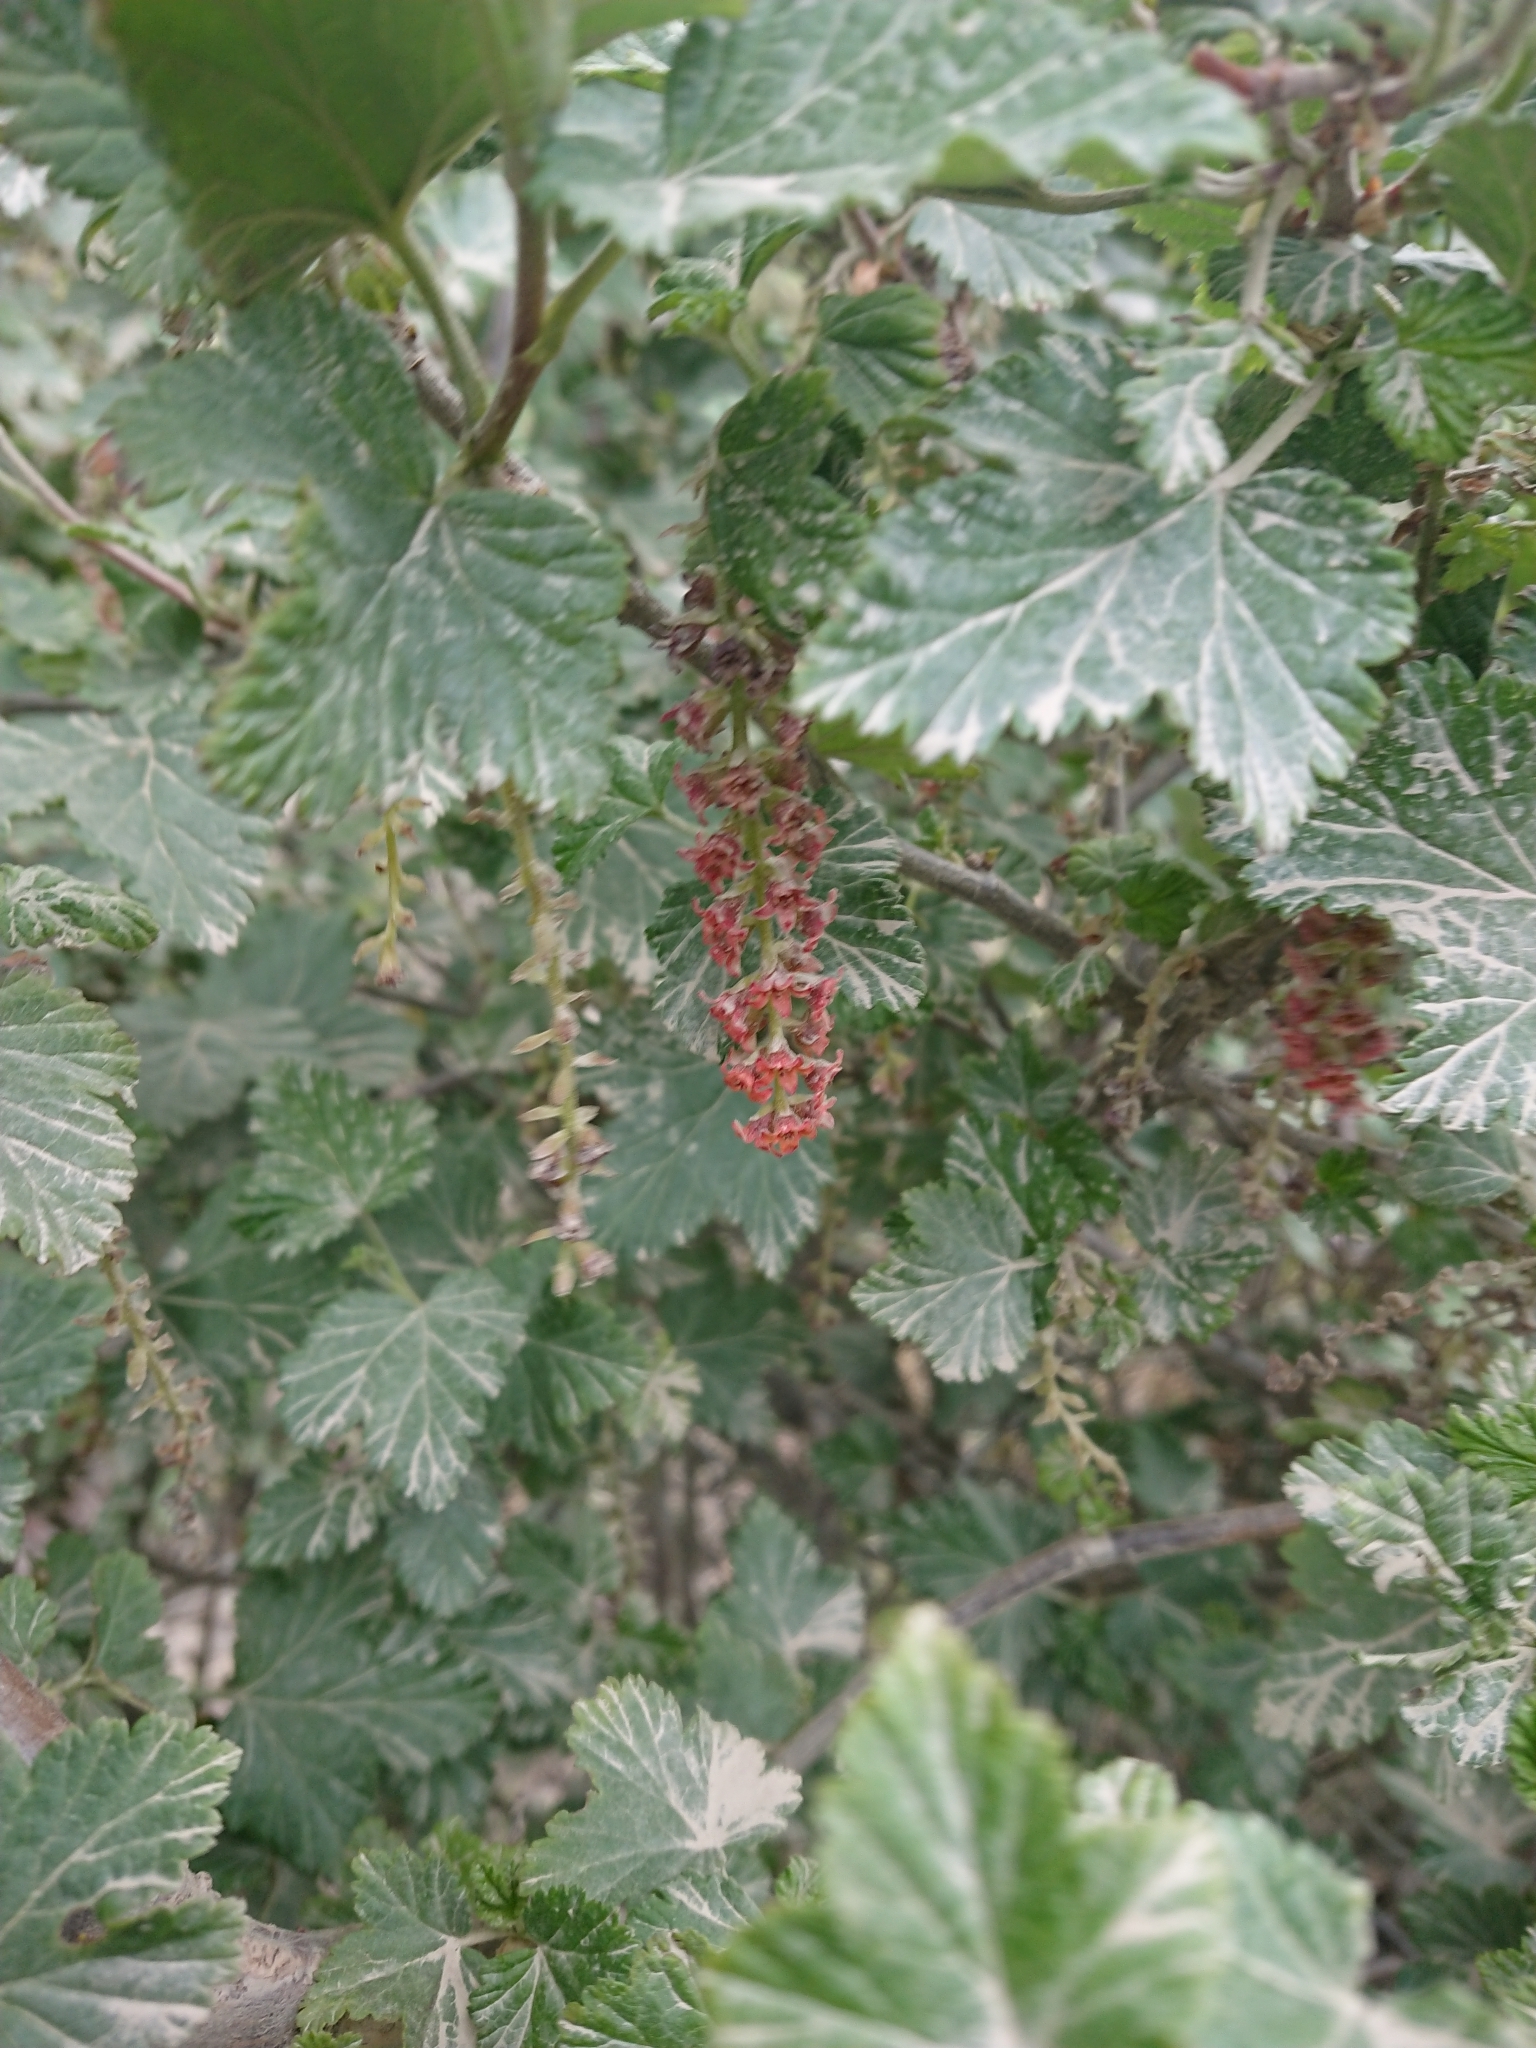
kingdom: Plantae
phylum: Tracheophyta
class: Magnoliopsida
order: Saxifragales
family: Grossulariaceae
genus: Ribes
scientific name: Ribes magellanicum
